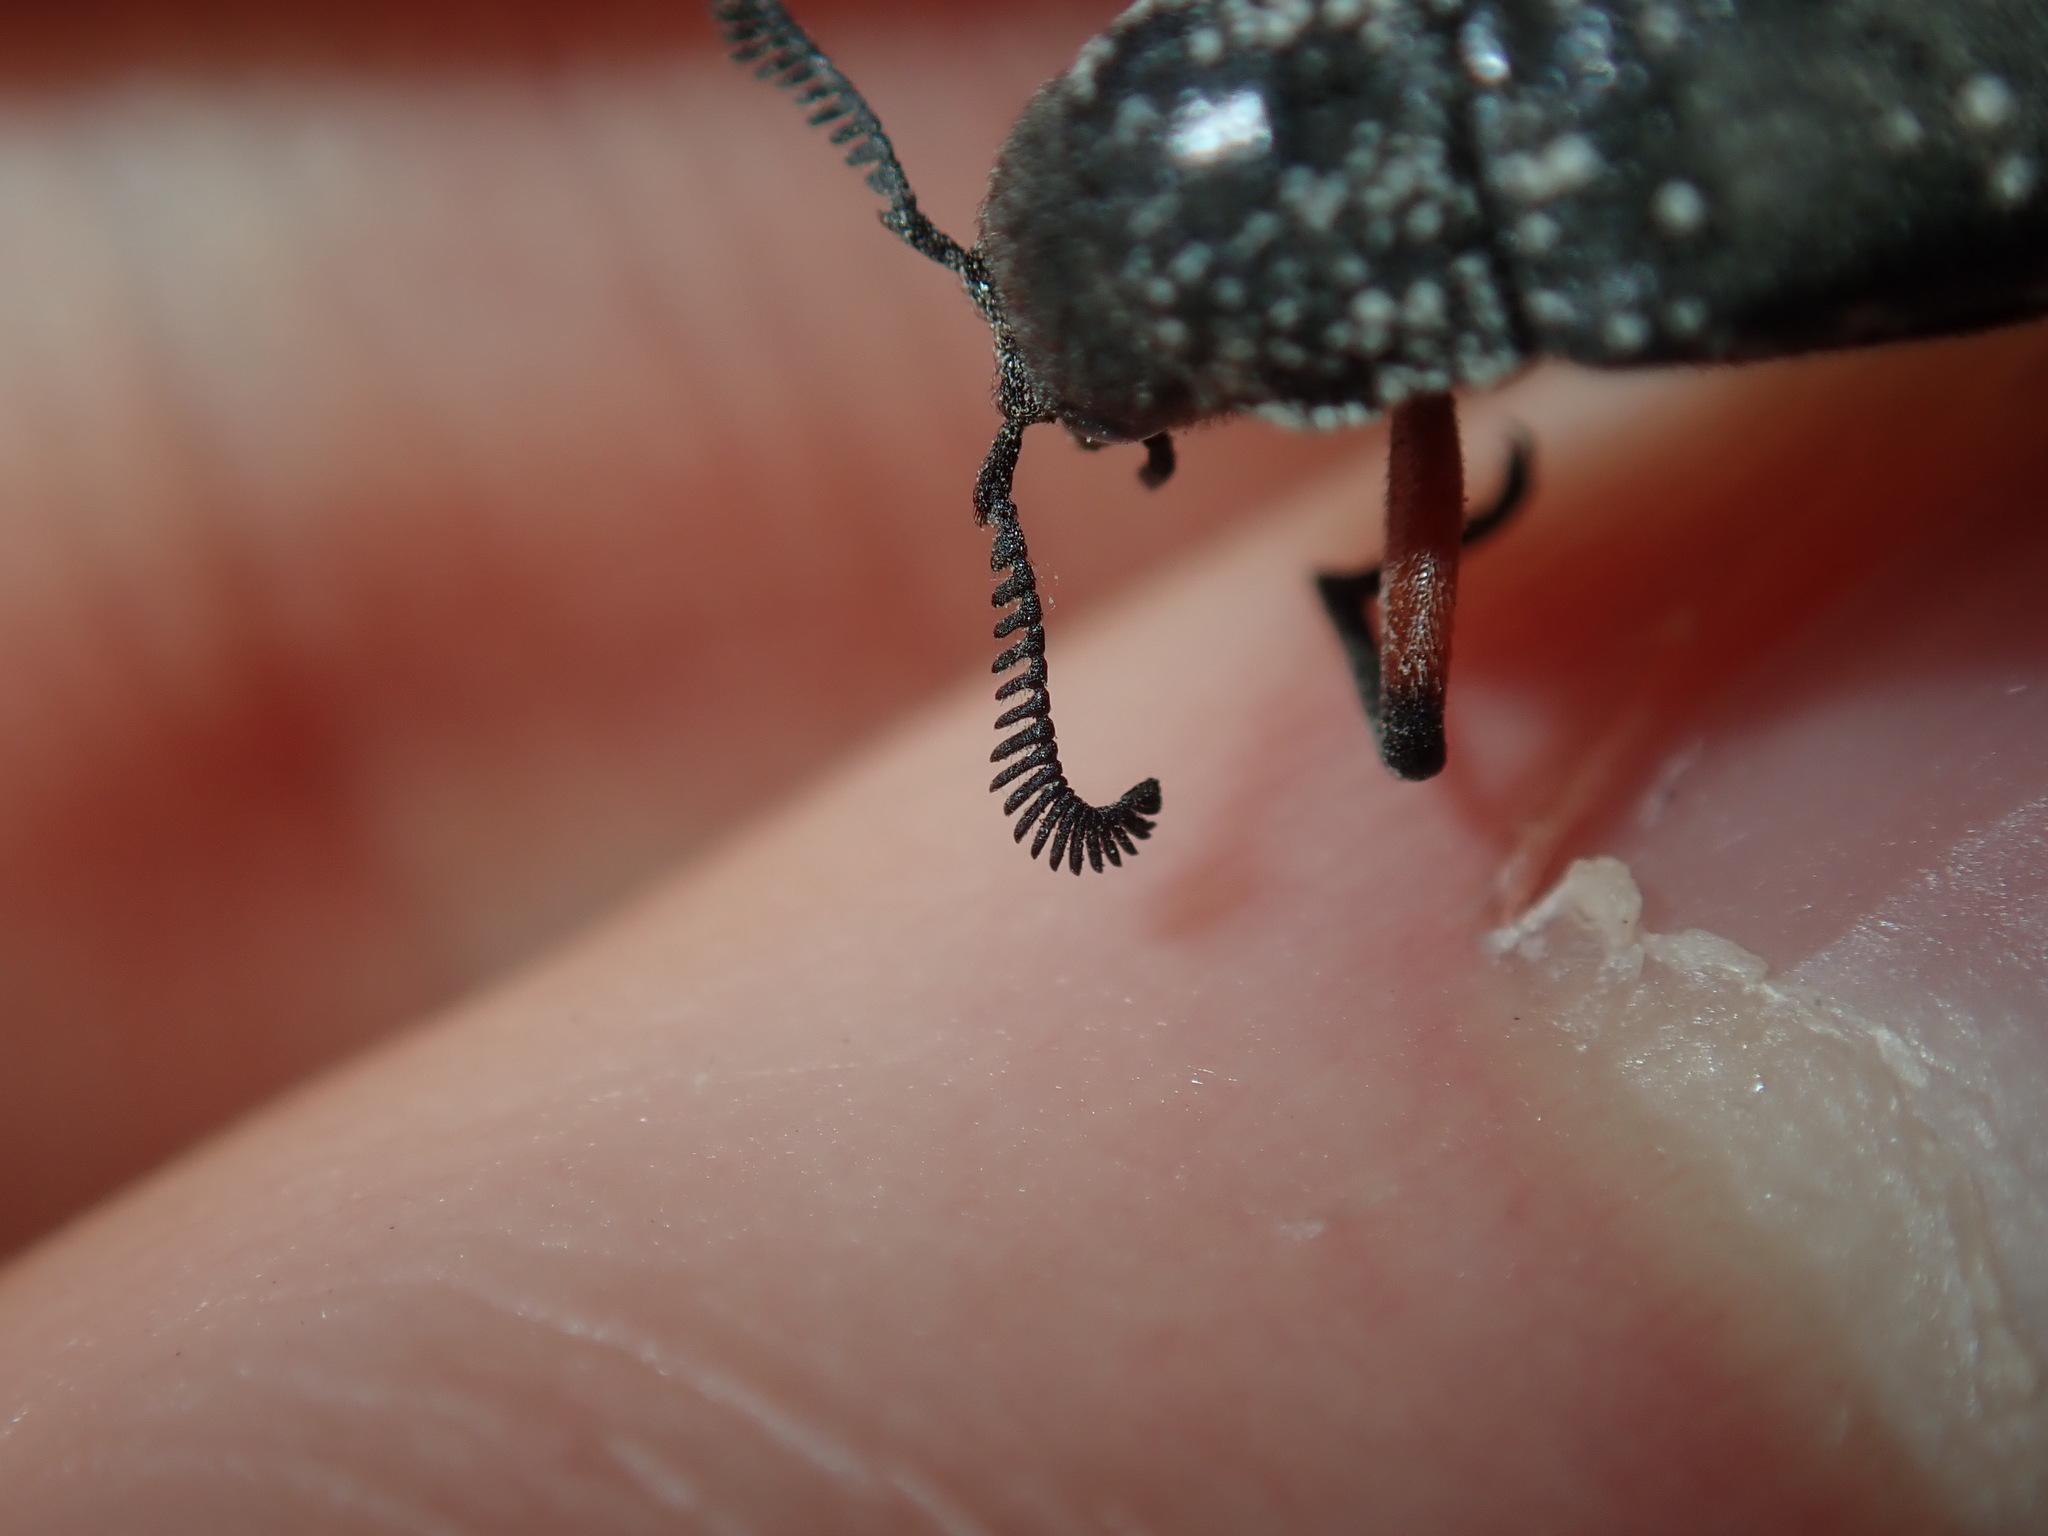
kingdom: Animalia
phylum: Arthropoda
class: Insecta
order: Coleoptera
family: Rhipiceridae
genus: Rhipicera
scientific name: Rhipicera femorata
